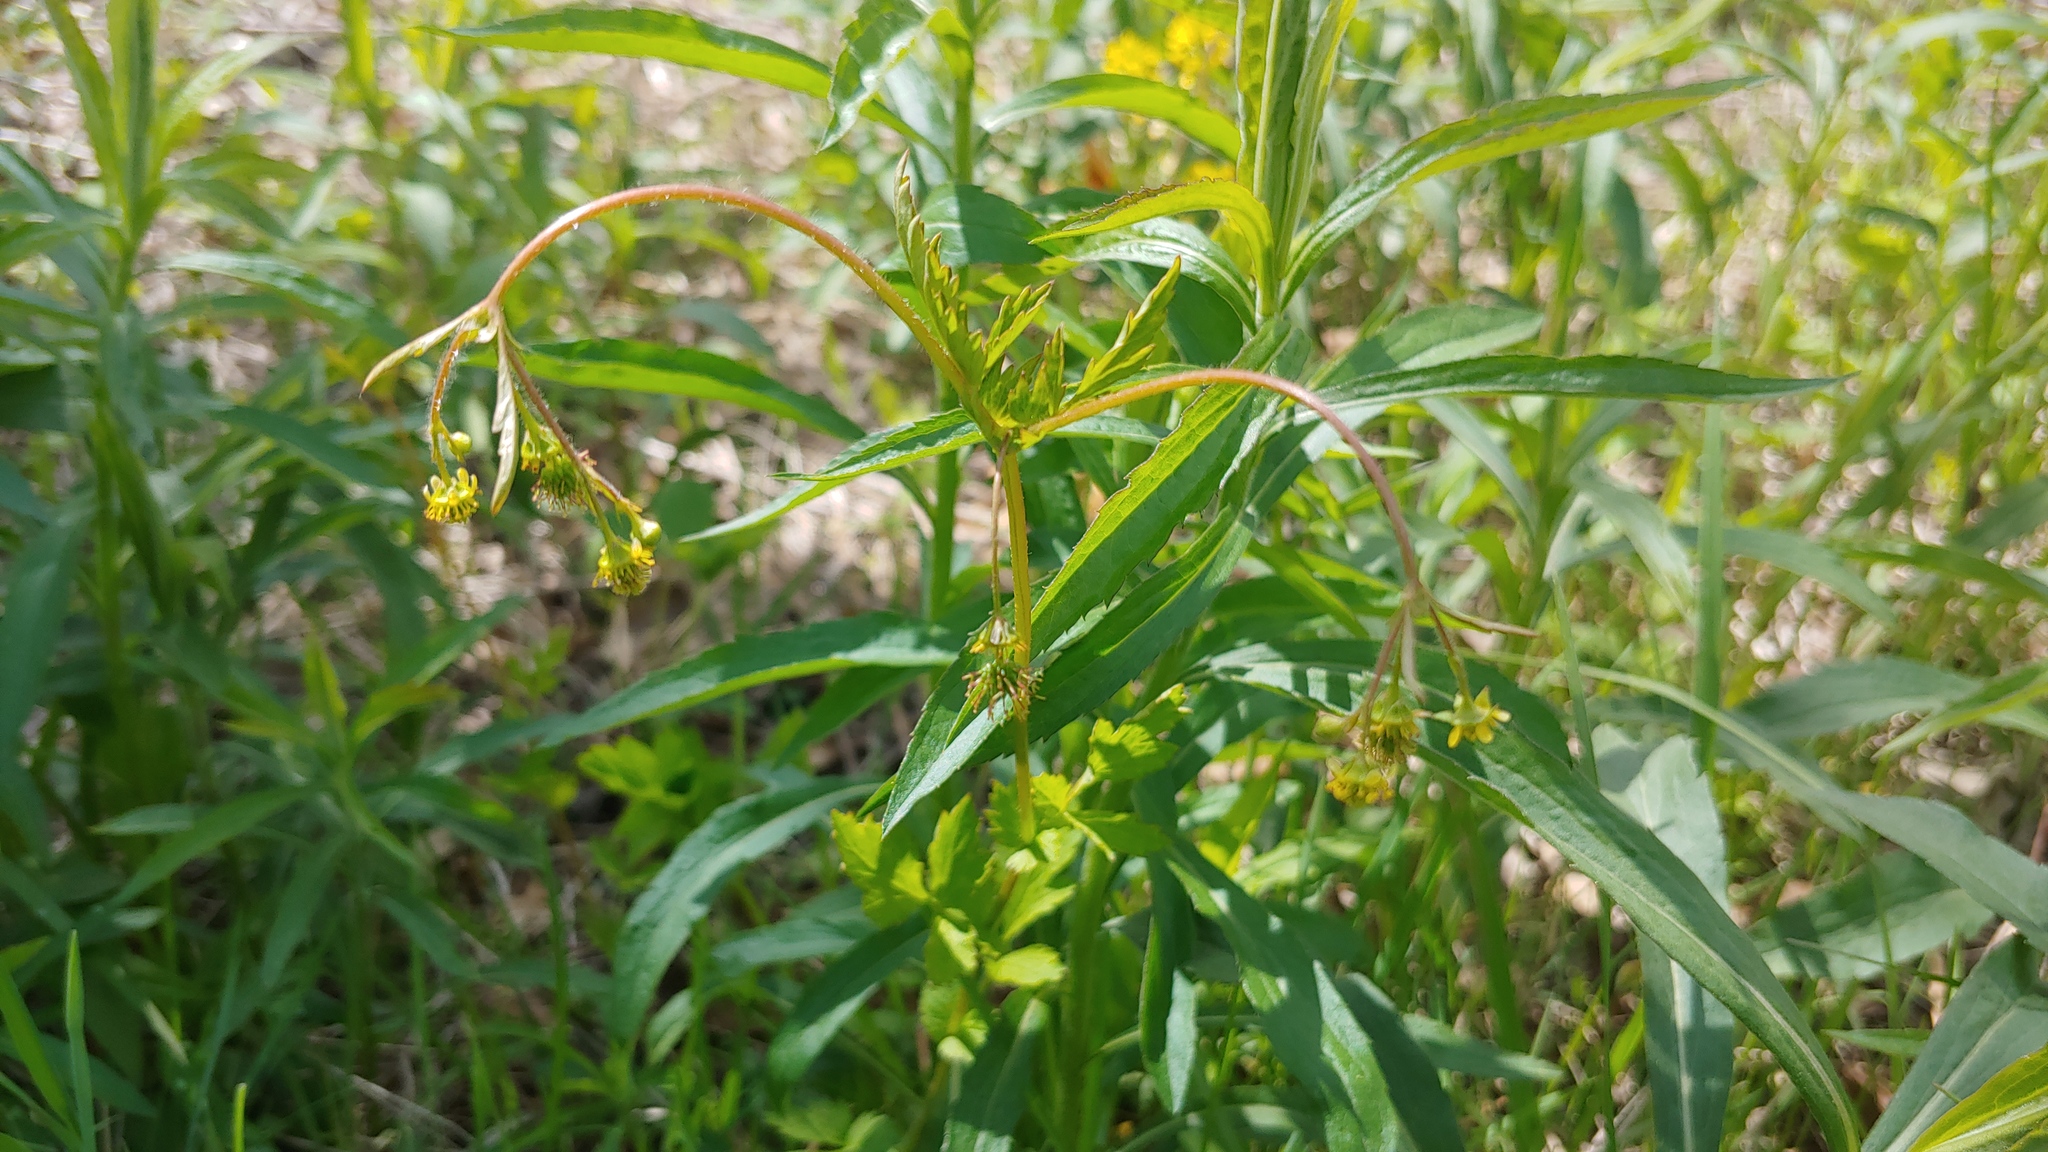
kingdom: Plantae
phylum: Tracheophyta
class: Magnoliopsida
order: Rosales
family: Rosaceae
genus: Geum
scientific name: Geum vernum
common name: Spring avens
